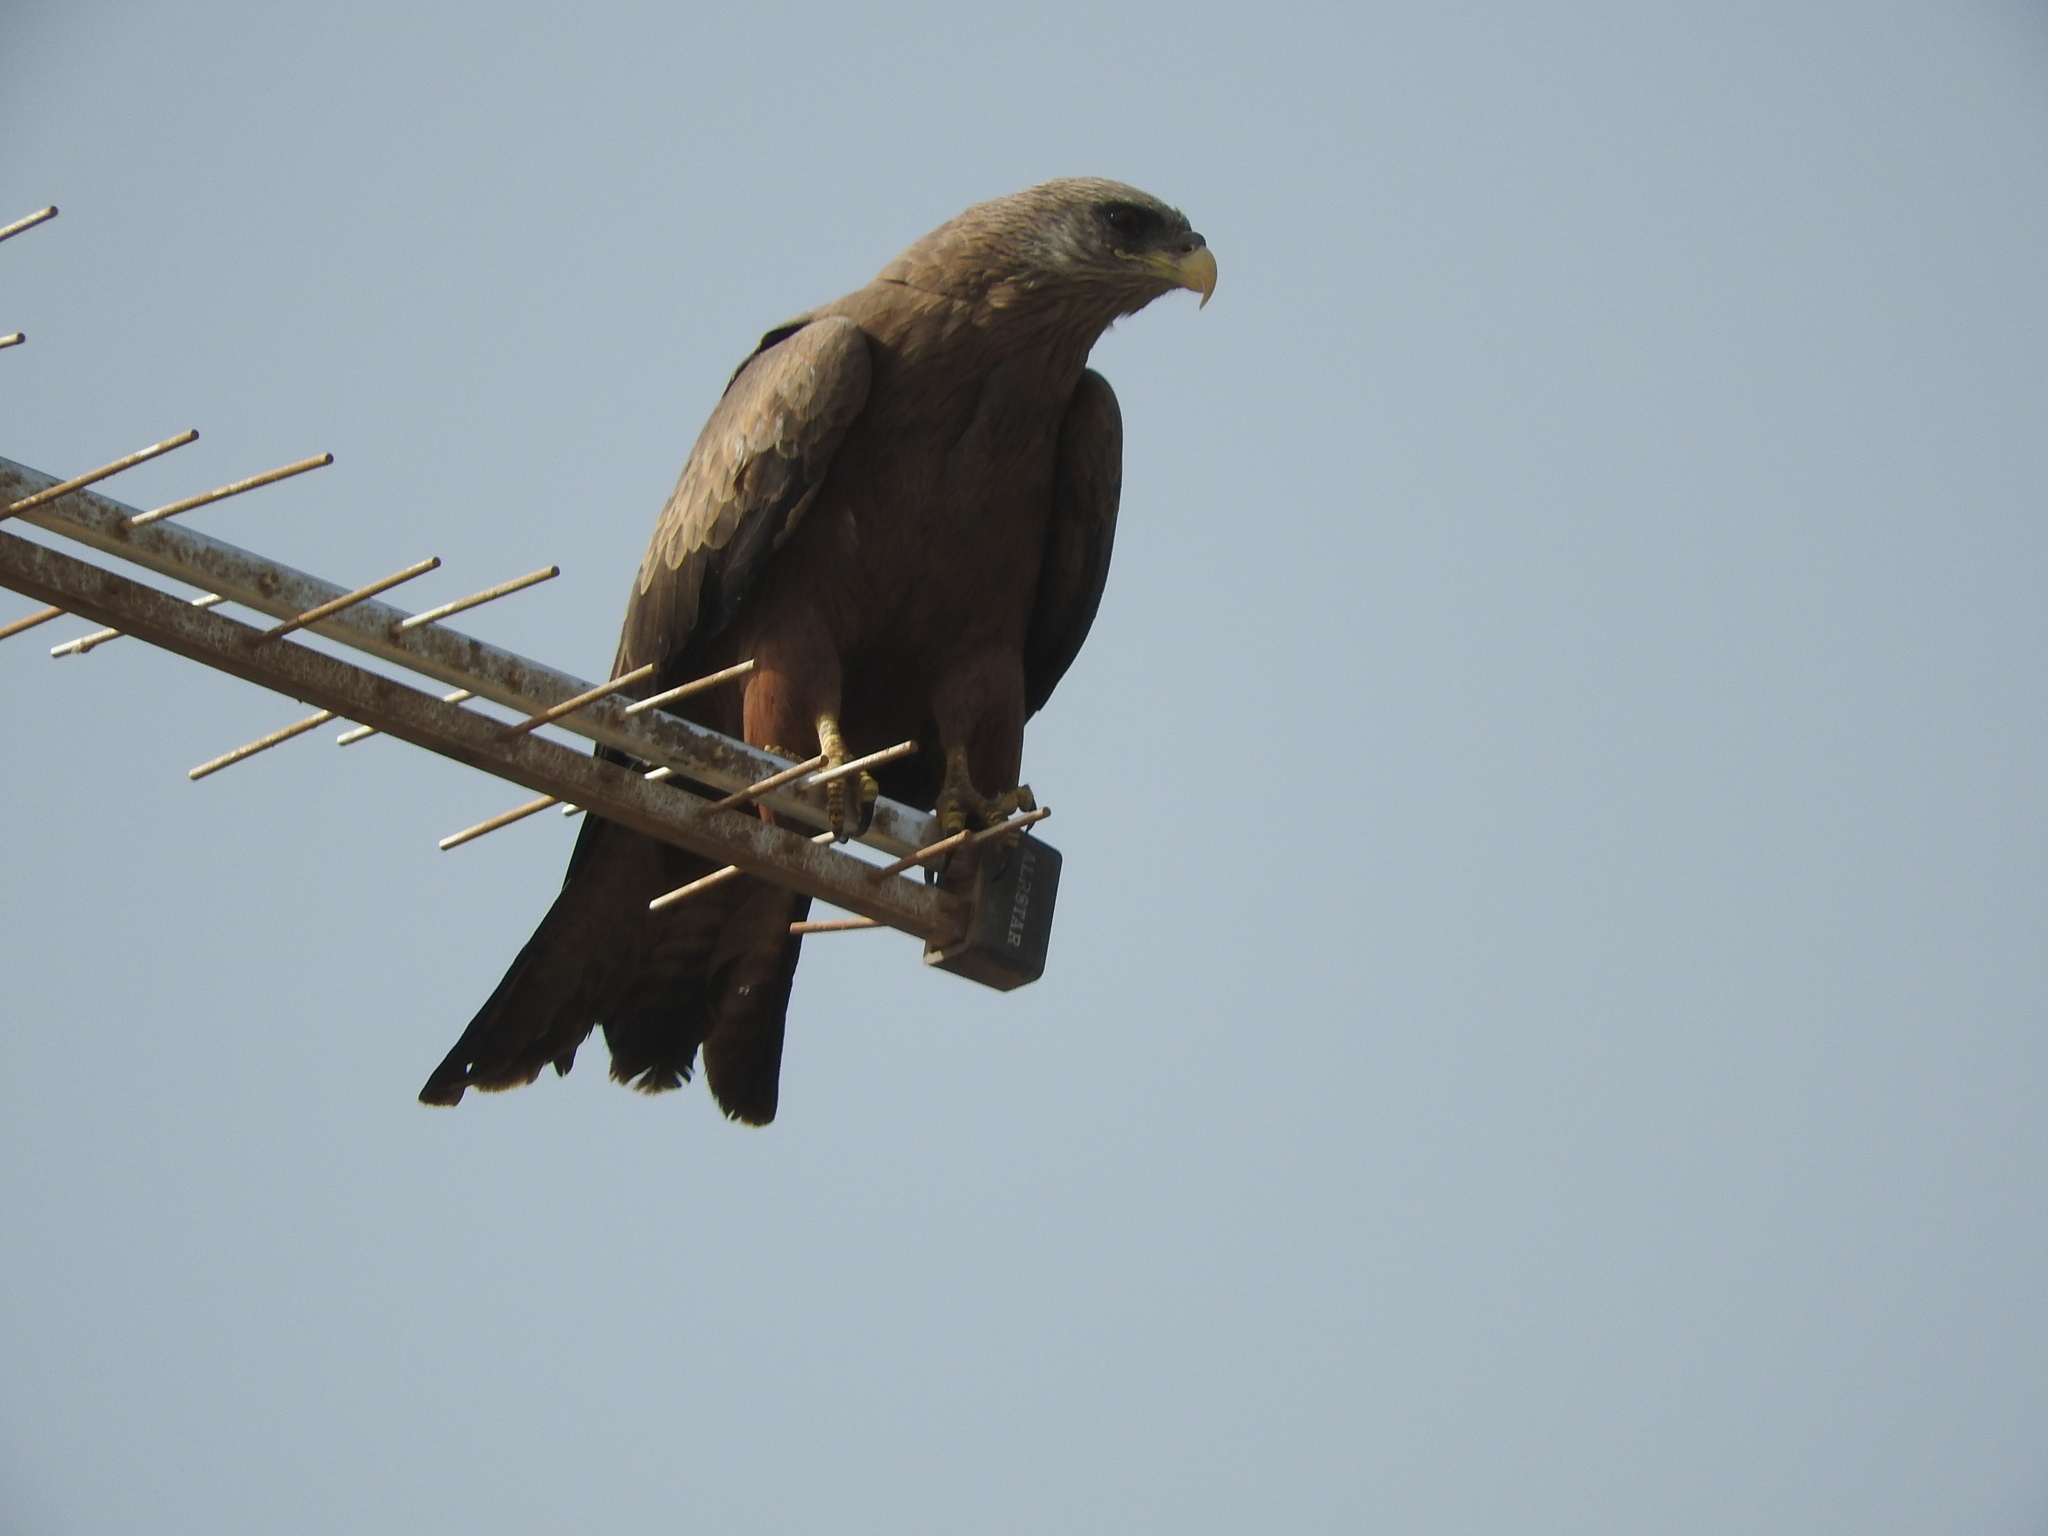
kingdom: Animalia
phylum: Chordata
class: Aves
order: Accipitriformes
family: Accipitridae
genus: Milvus
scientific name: Milvus migrans
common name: Black kite
